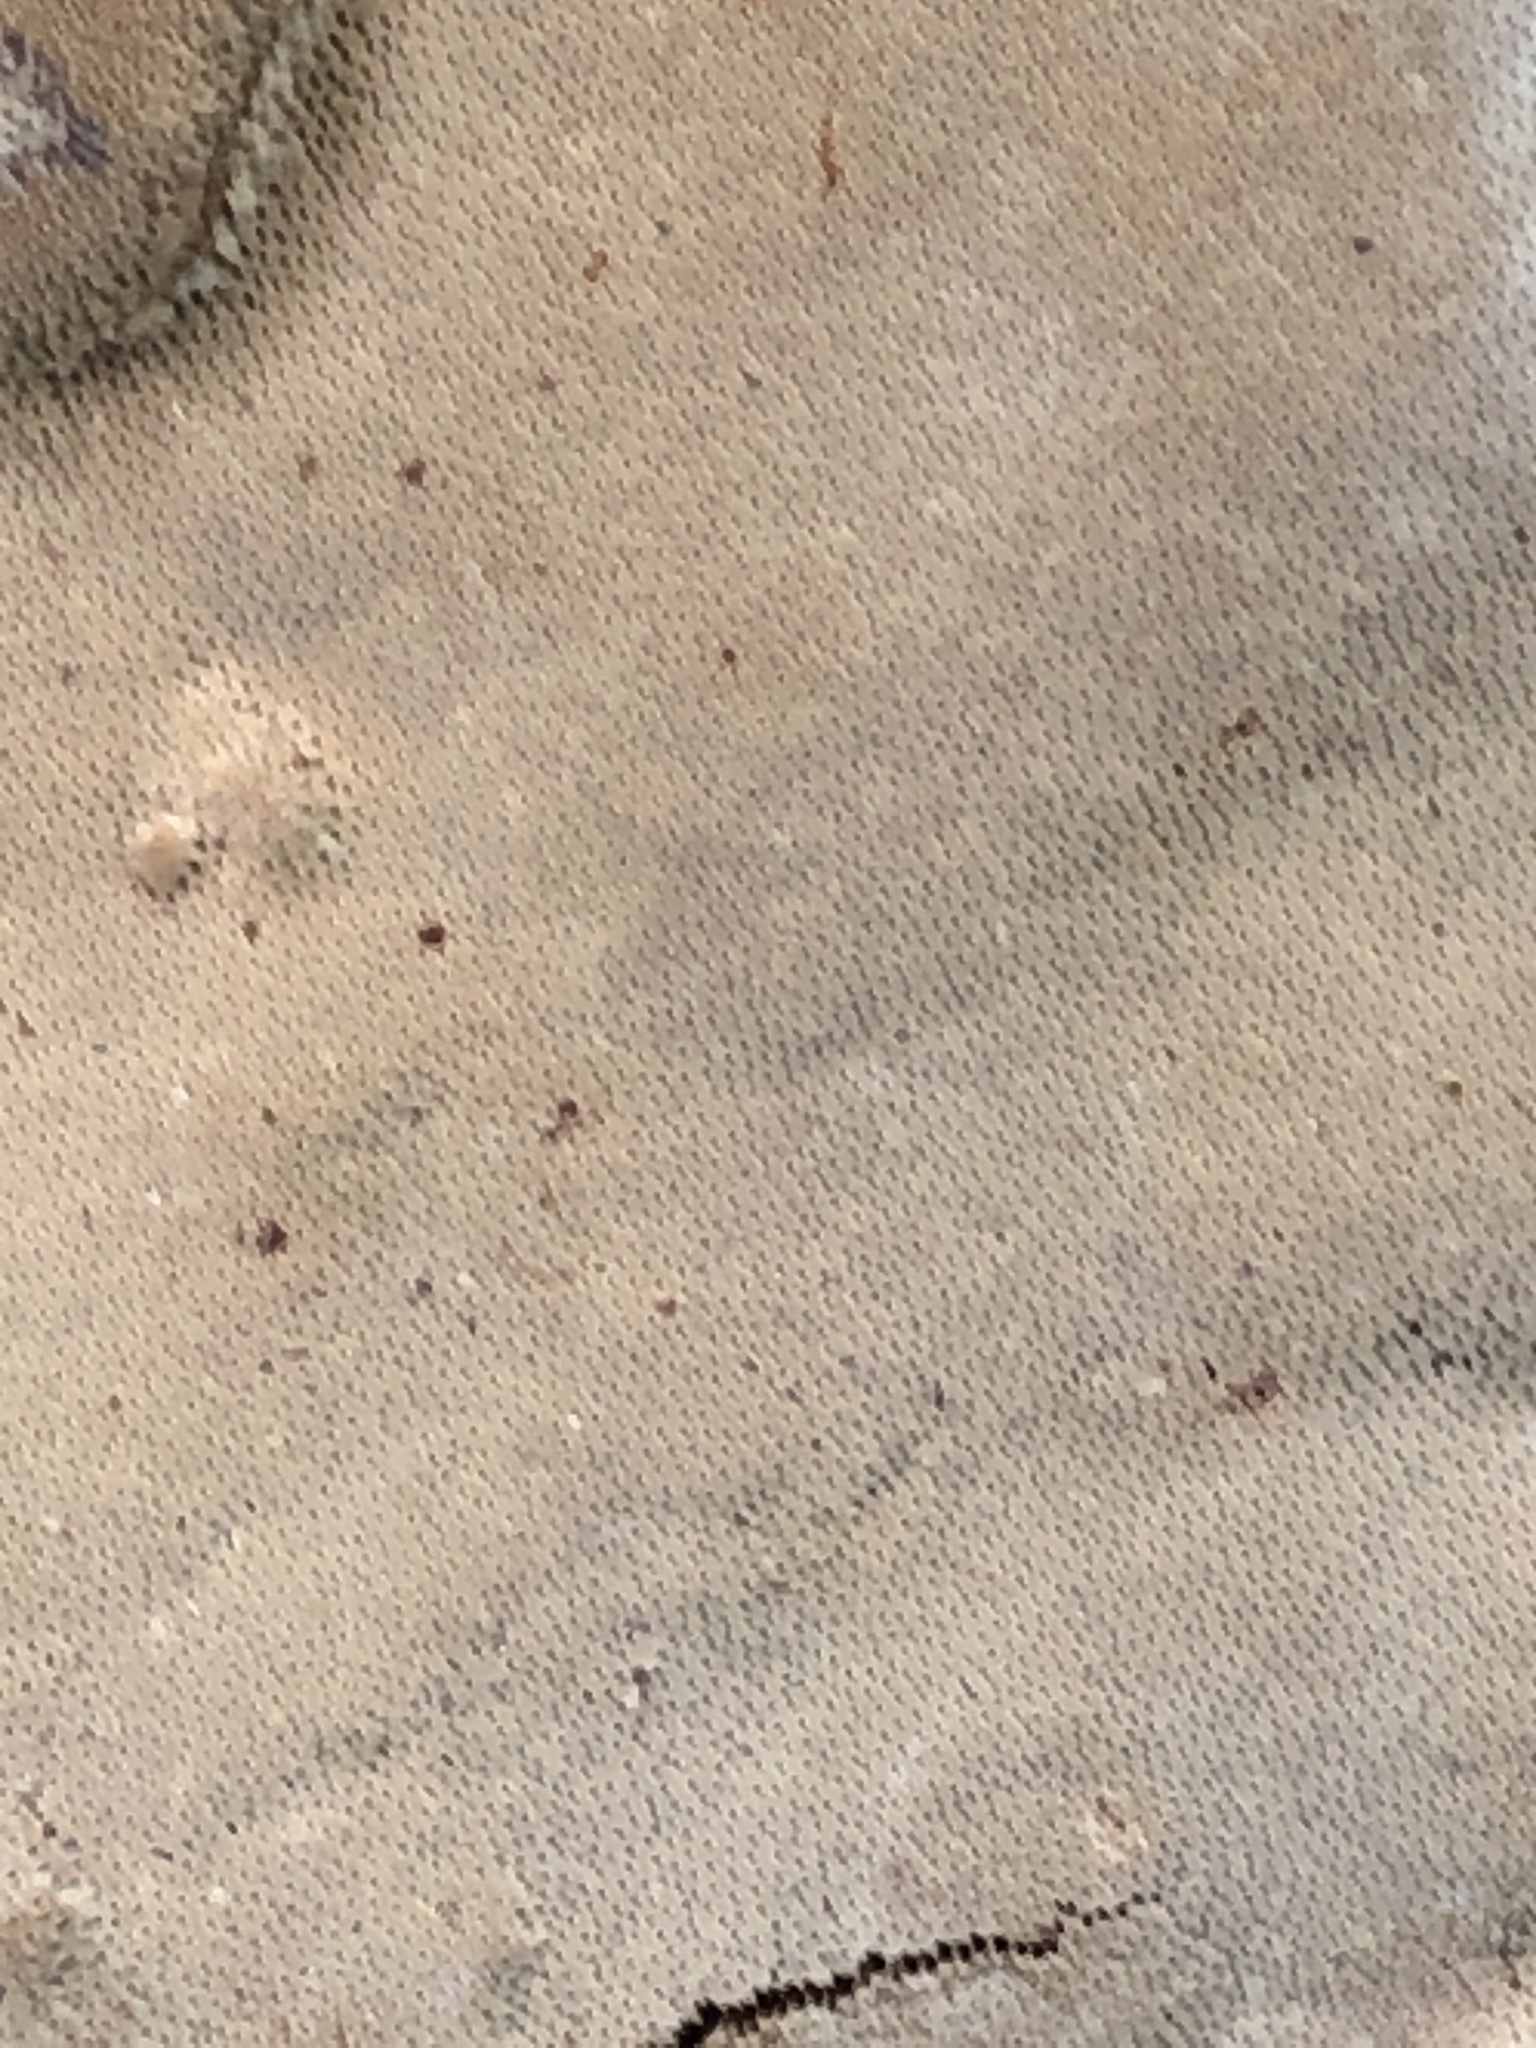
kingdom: Fungi
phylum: Basidiomycota
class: Agaricomycetes
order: Polyporales
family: Cerrenaceae
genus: Cerrena
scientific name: Cerrena hydnoides
